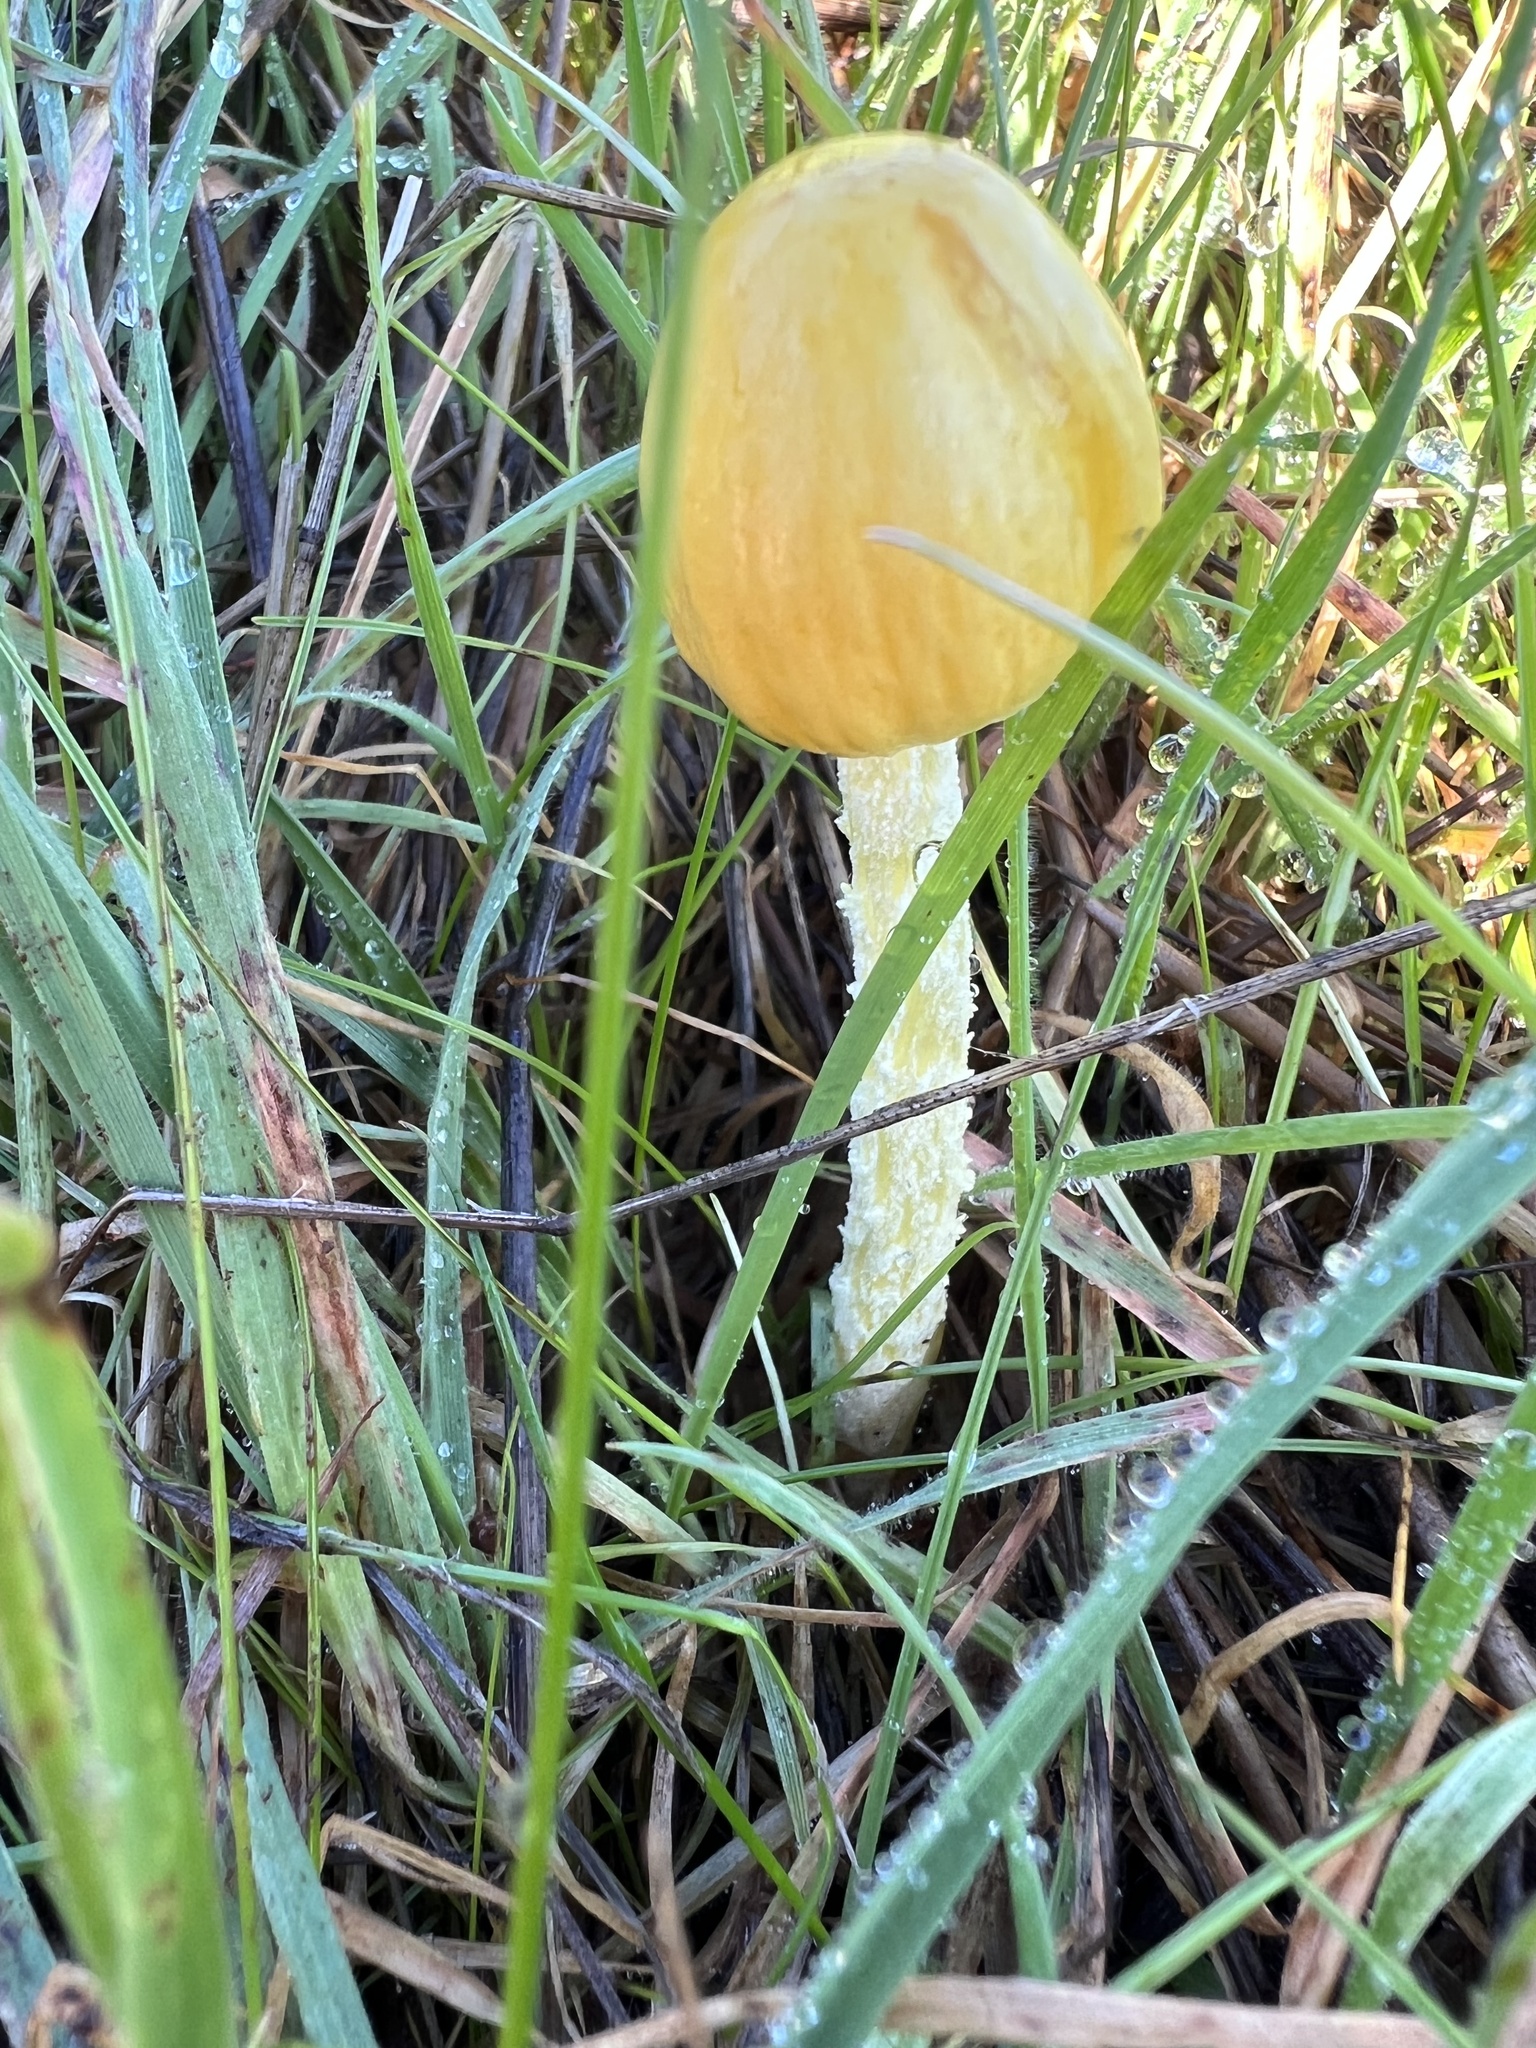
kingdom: Fungi
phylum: Basidiomycota
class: Agaricomycetes
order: Agaricales
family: Bolbitiaceae
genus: Bolbitius
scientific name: Bolbitius titubans
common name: Yellow fieldcap
